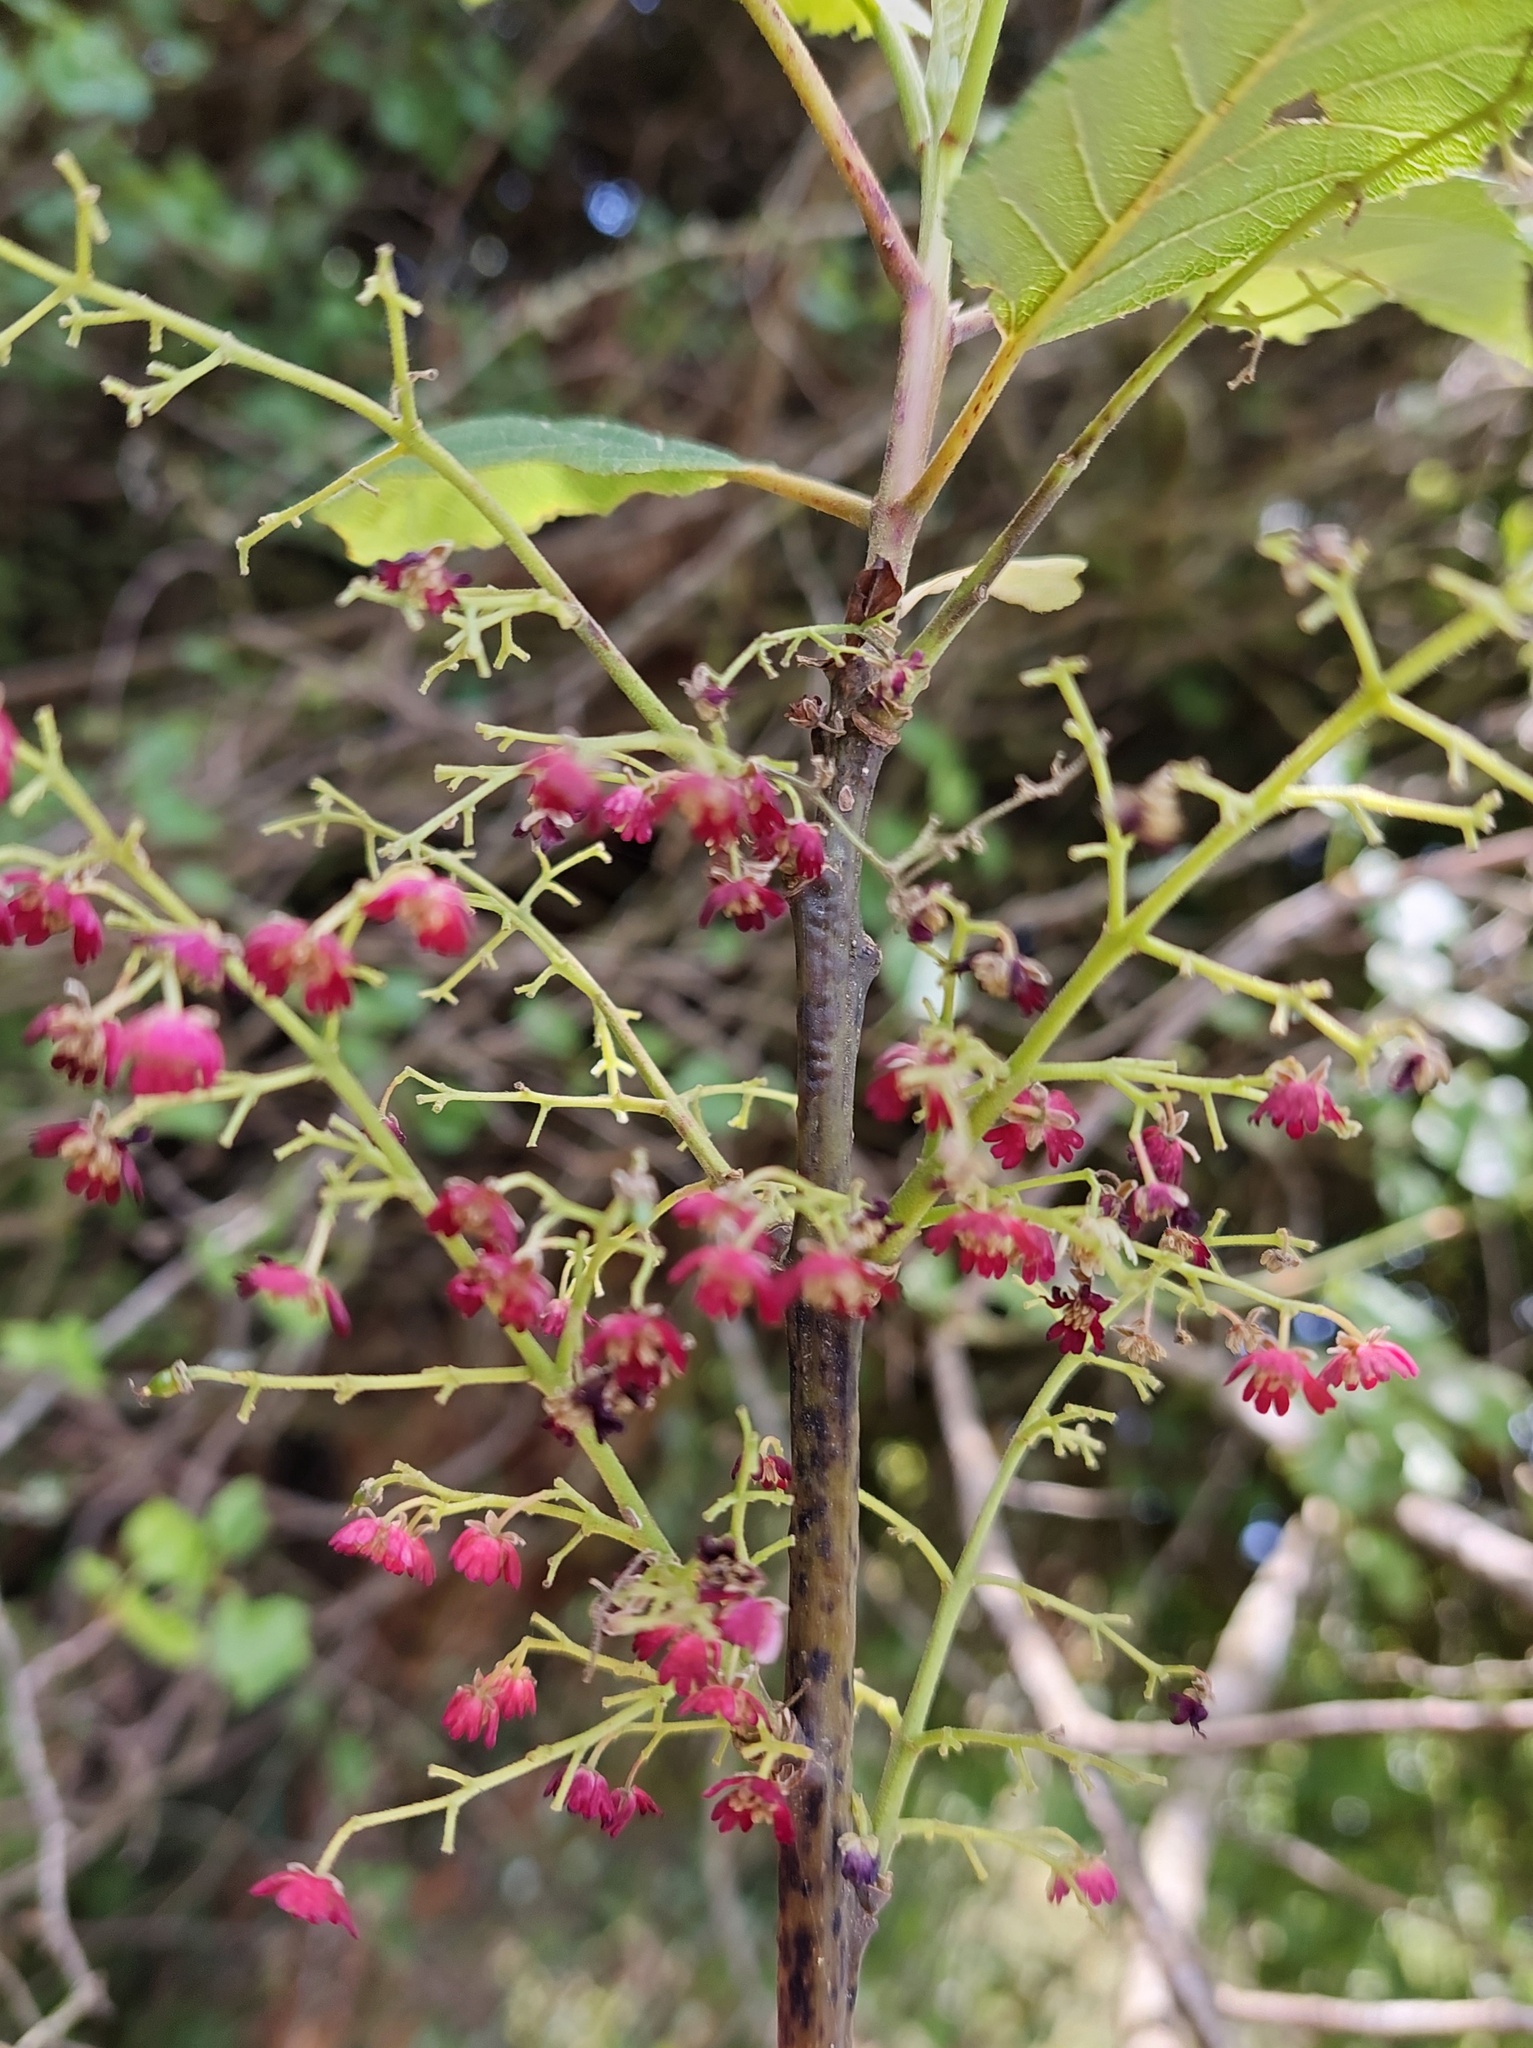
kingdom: Plantae
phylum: Tracheophyta
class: Magnoliopsida
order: Oxalidales
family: Elaeocarpaceae
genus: Aristotelia
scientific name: Aristotelia serrata
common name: New zealand wineberry
